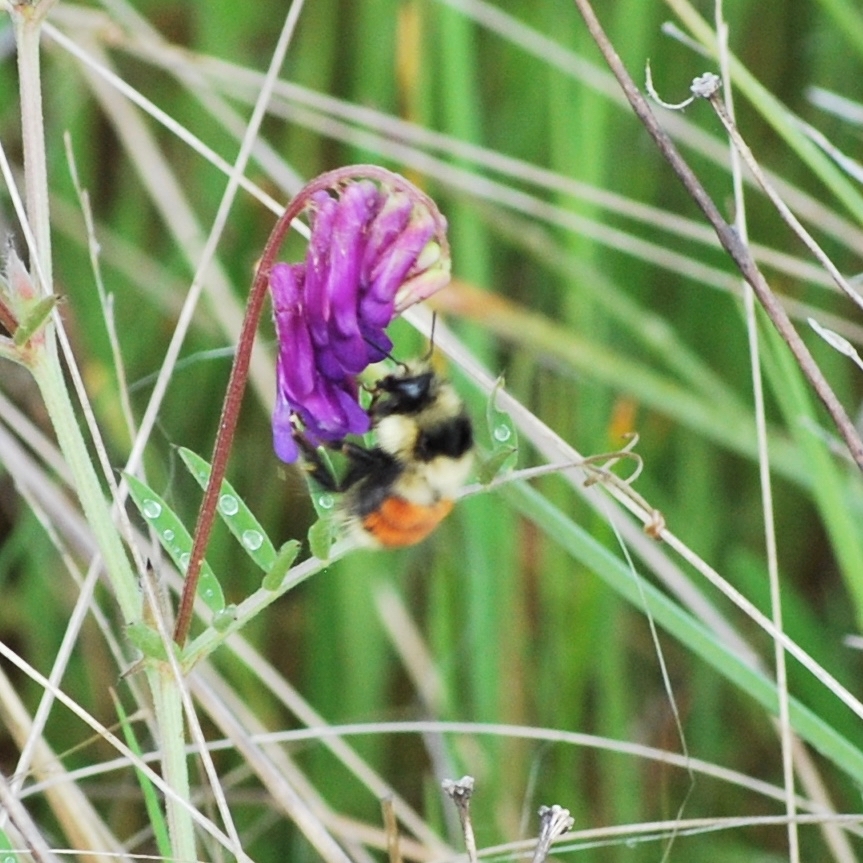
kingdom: Animalia
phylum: Arthropoda
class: Insecta
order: Hymenoptera
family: Apidae
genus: Bombus
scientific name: Bombus huntii
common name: Hunt bumble bee
